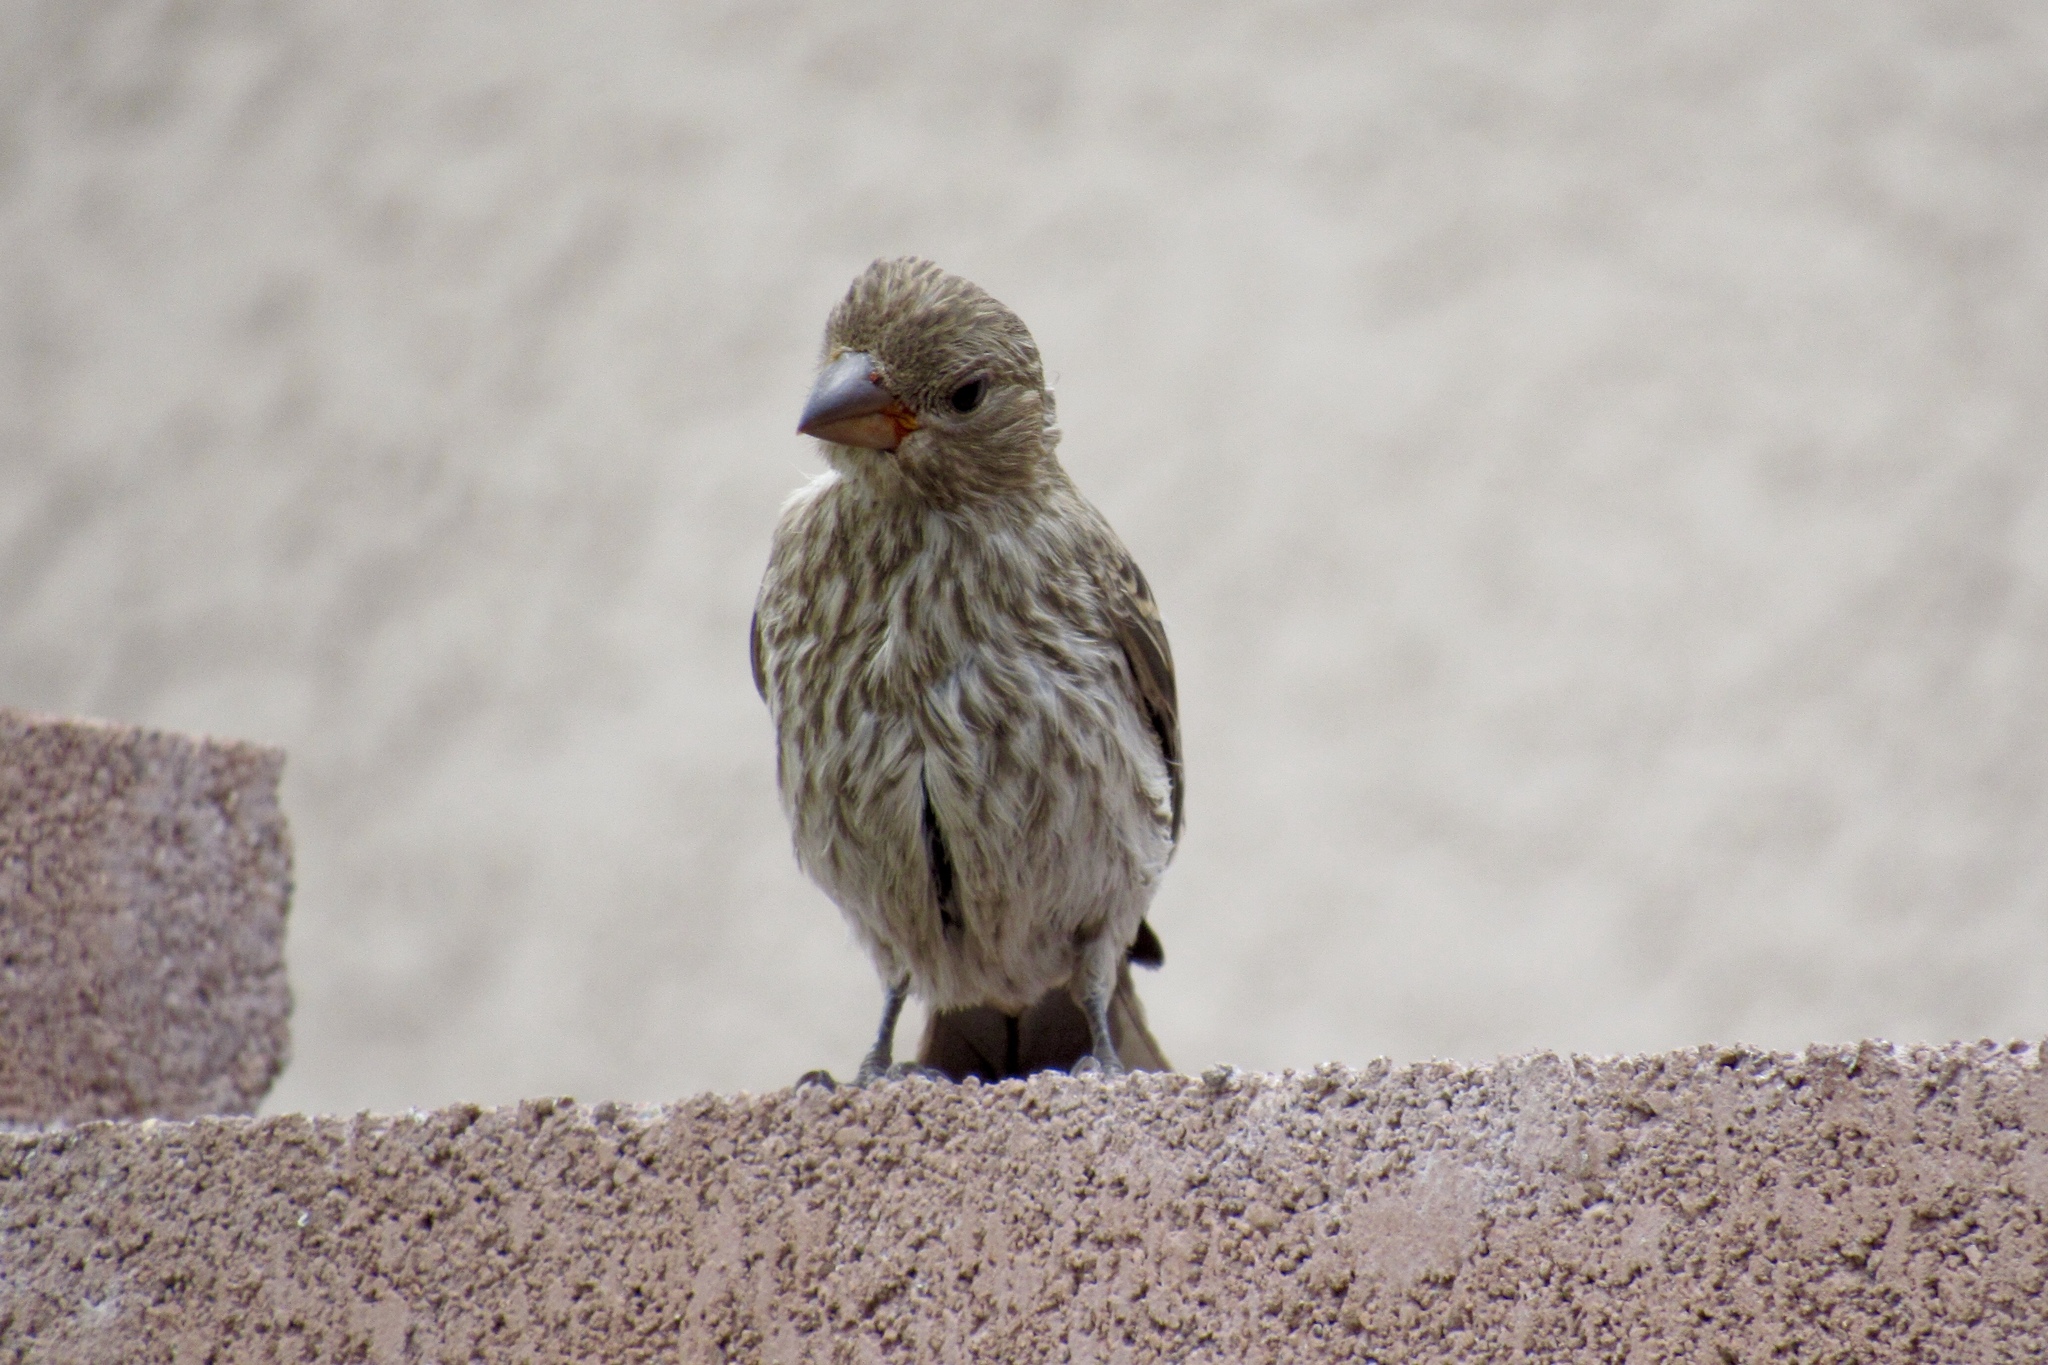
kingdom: Animalia
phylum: Chordata
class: Aves
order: Passeriformes
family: Fringillidae
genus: Haemorhous
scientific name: Haemorhous mexicanus
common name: House finch
